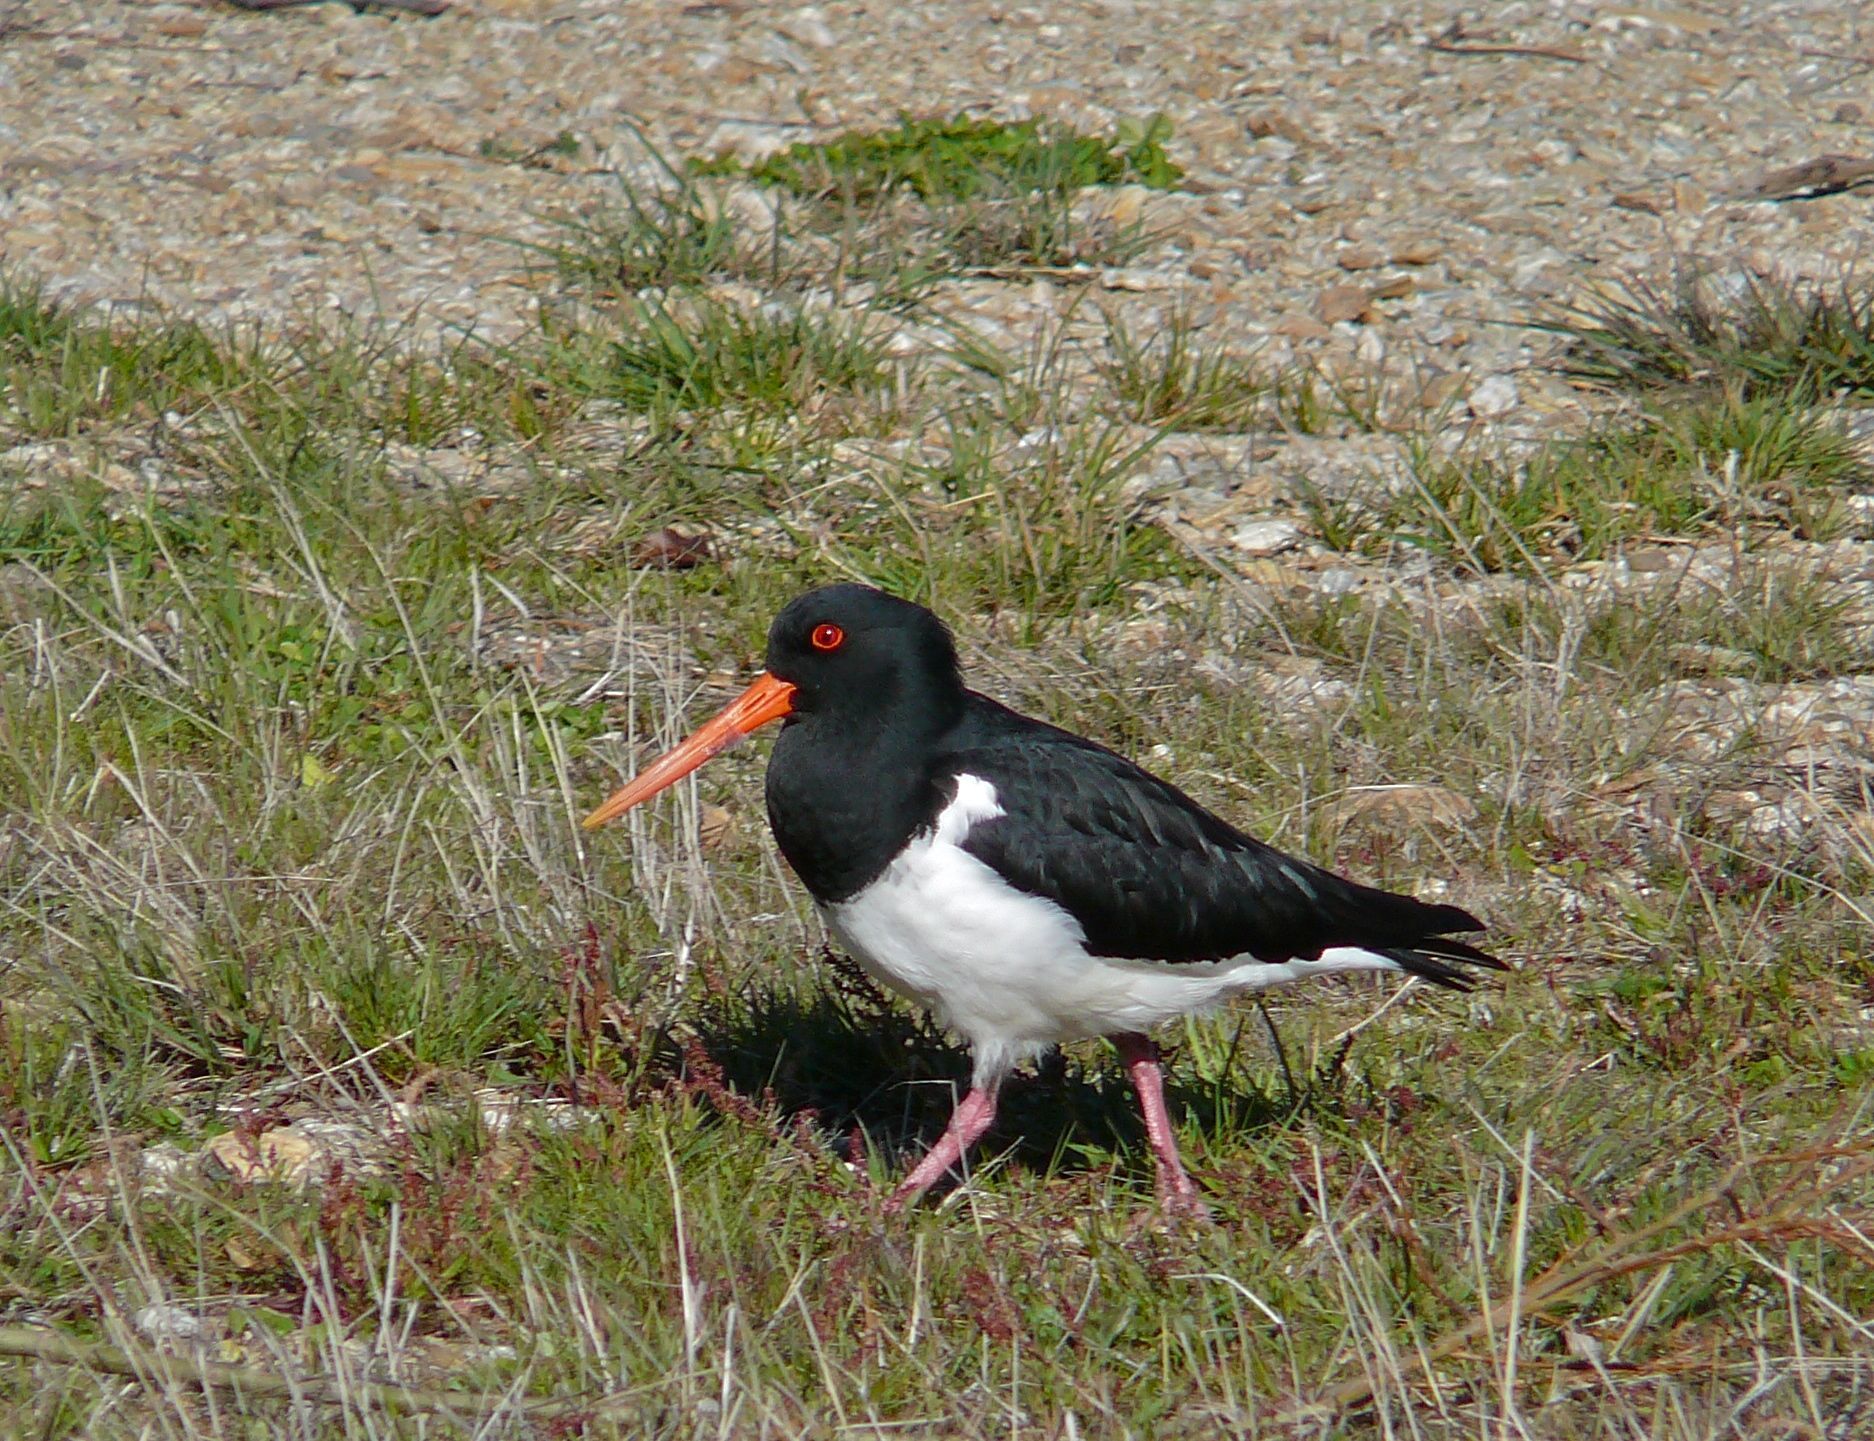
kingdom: Animalia
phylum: Chordata
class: Aves
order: Charadriiformes
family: Haematopodidae
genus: Haematopus
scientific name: Haematopus finschi
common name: South island oystercatcher
